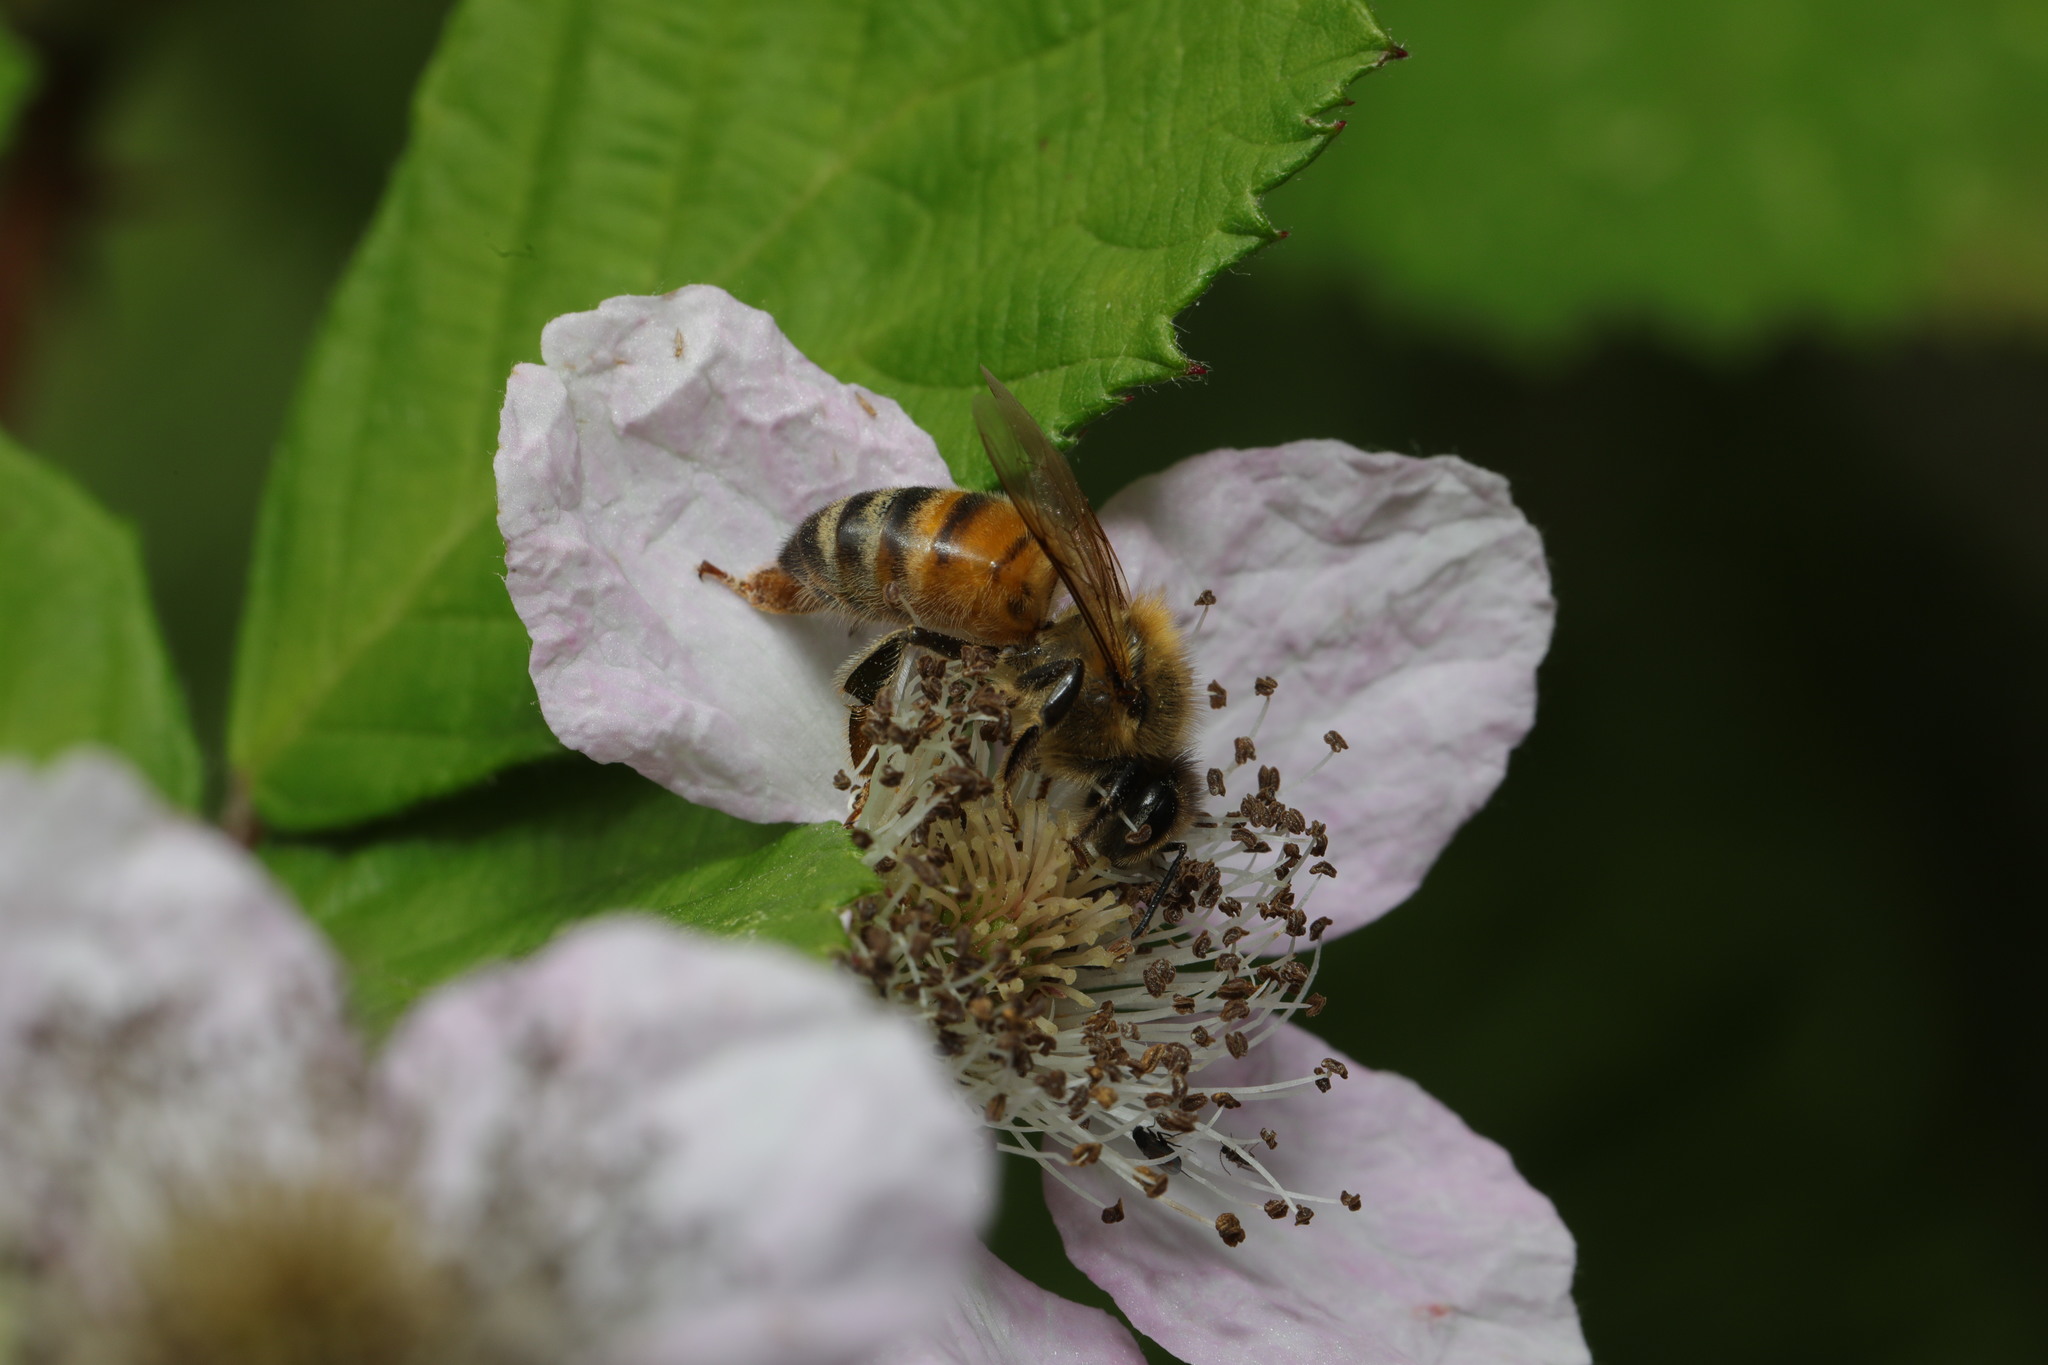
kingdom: Animalia
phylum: Arthropoda
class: Insecta
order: Hymenoptera
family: Apidae
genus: Apis
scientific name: Apis mellifera
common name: Honey bee
